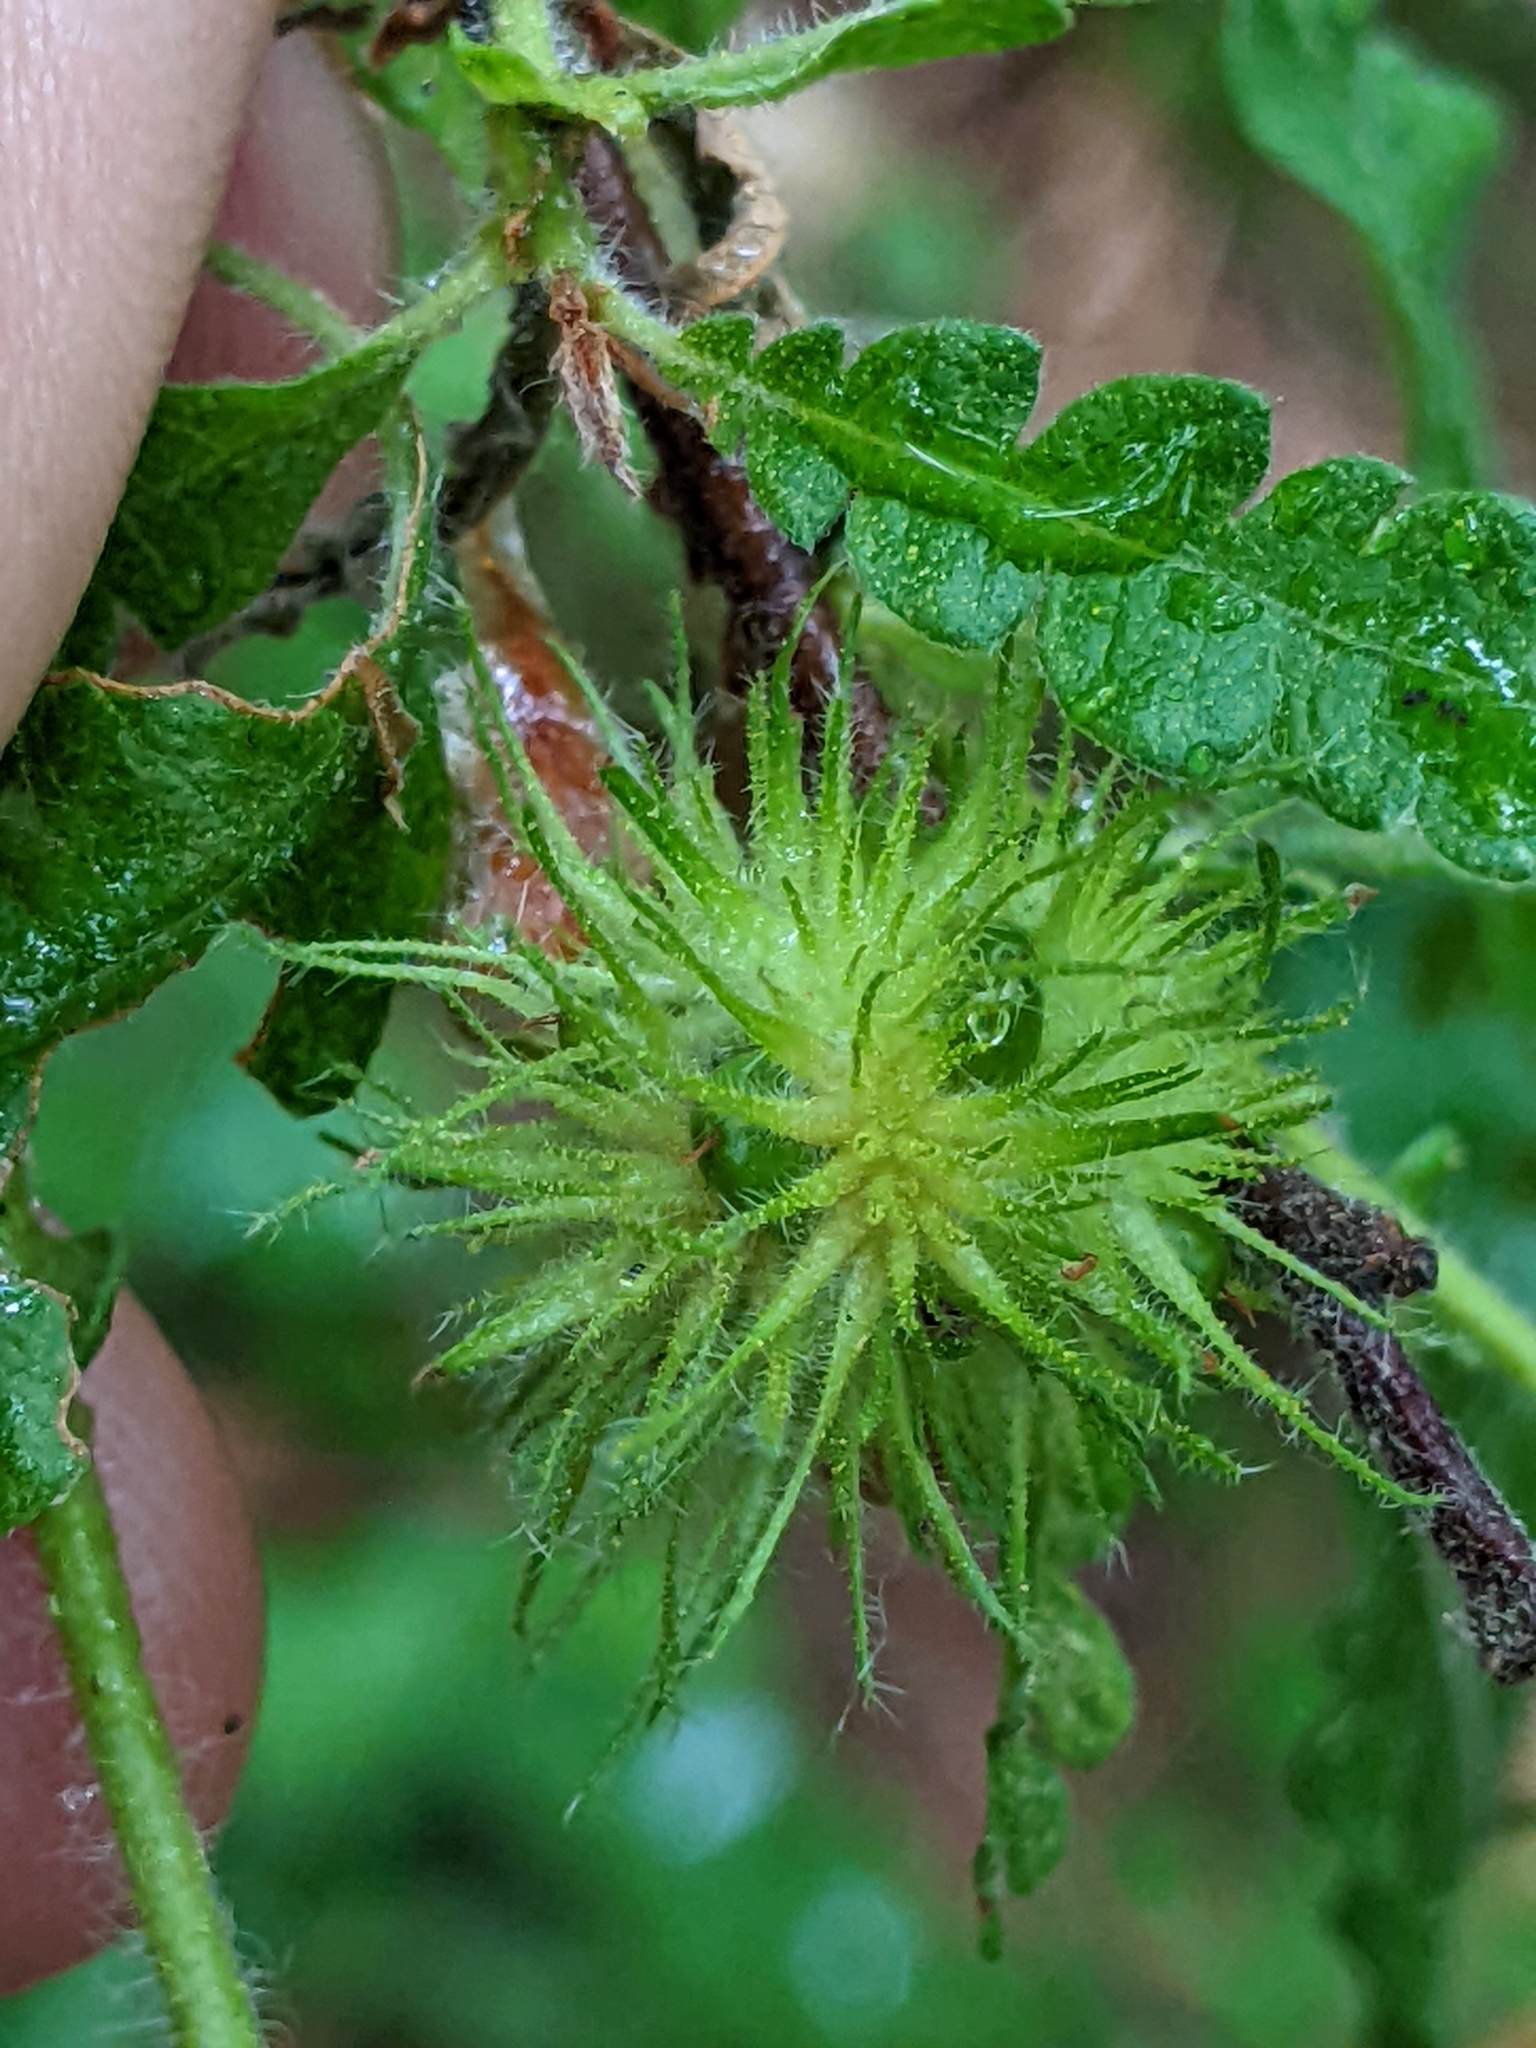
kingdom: Plantae
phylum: Tracheophyta
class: Magnoliopsida
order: Fagales
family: Myricaceae
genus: Comptonia
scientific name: Comptonia peregrina
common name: Sweet-fern
